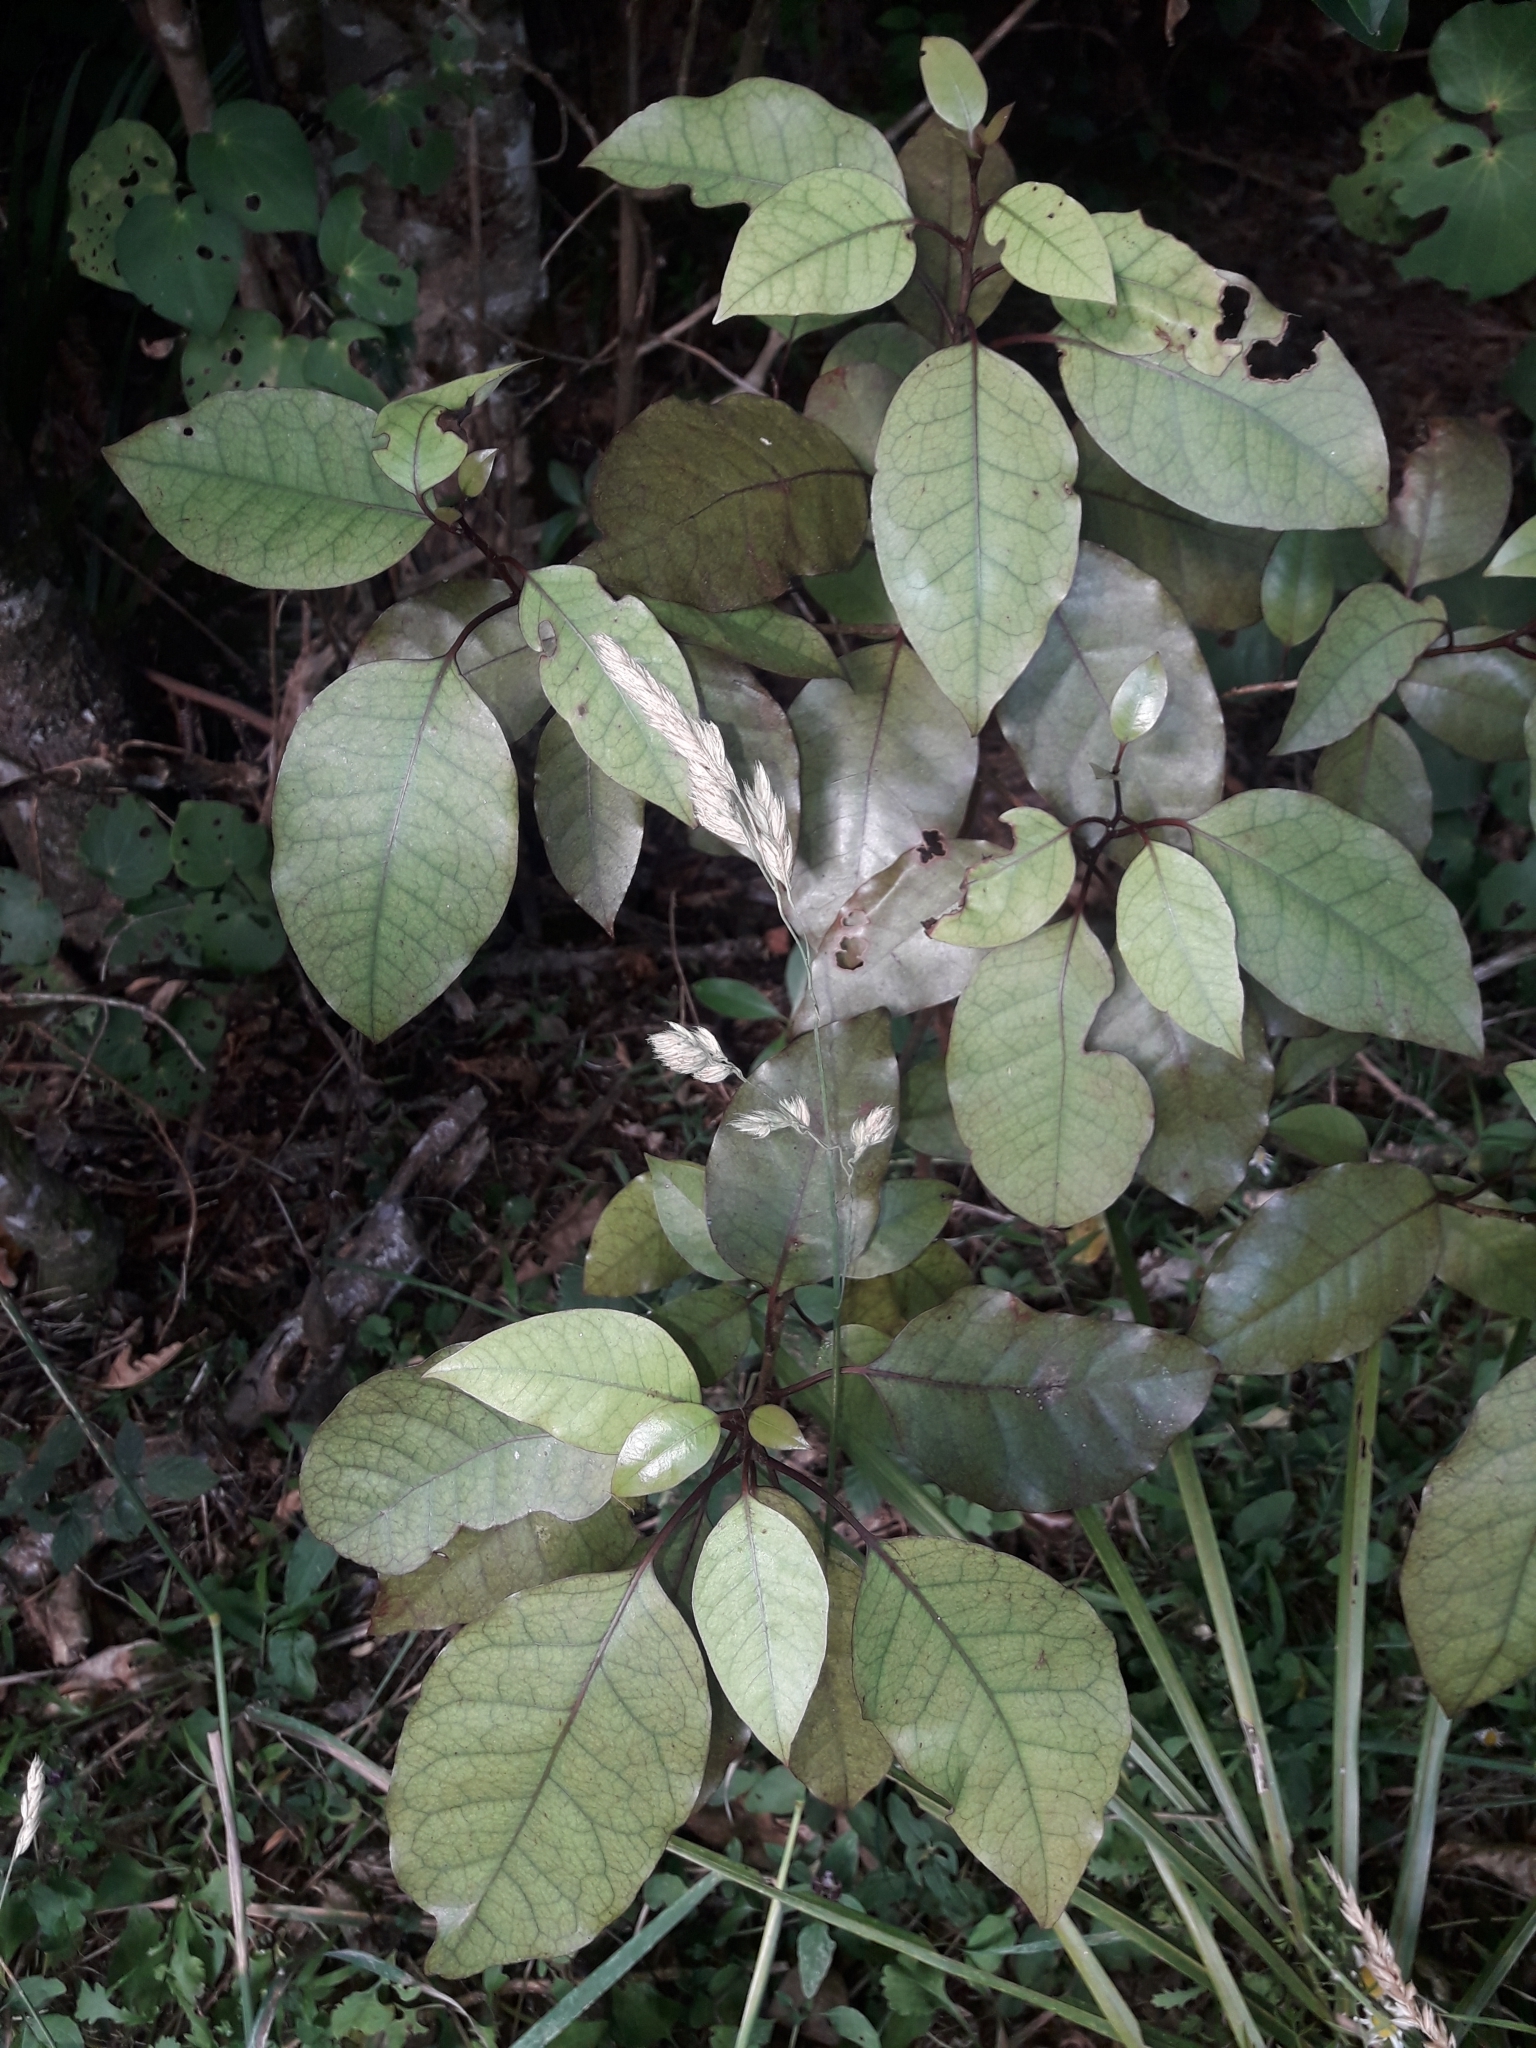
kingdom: Plantae
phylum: Tracheophyta
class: Magnoliopsida
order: Laurales
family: Lauraceae
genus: Litsea
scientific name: Litsea calicaris
